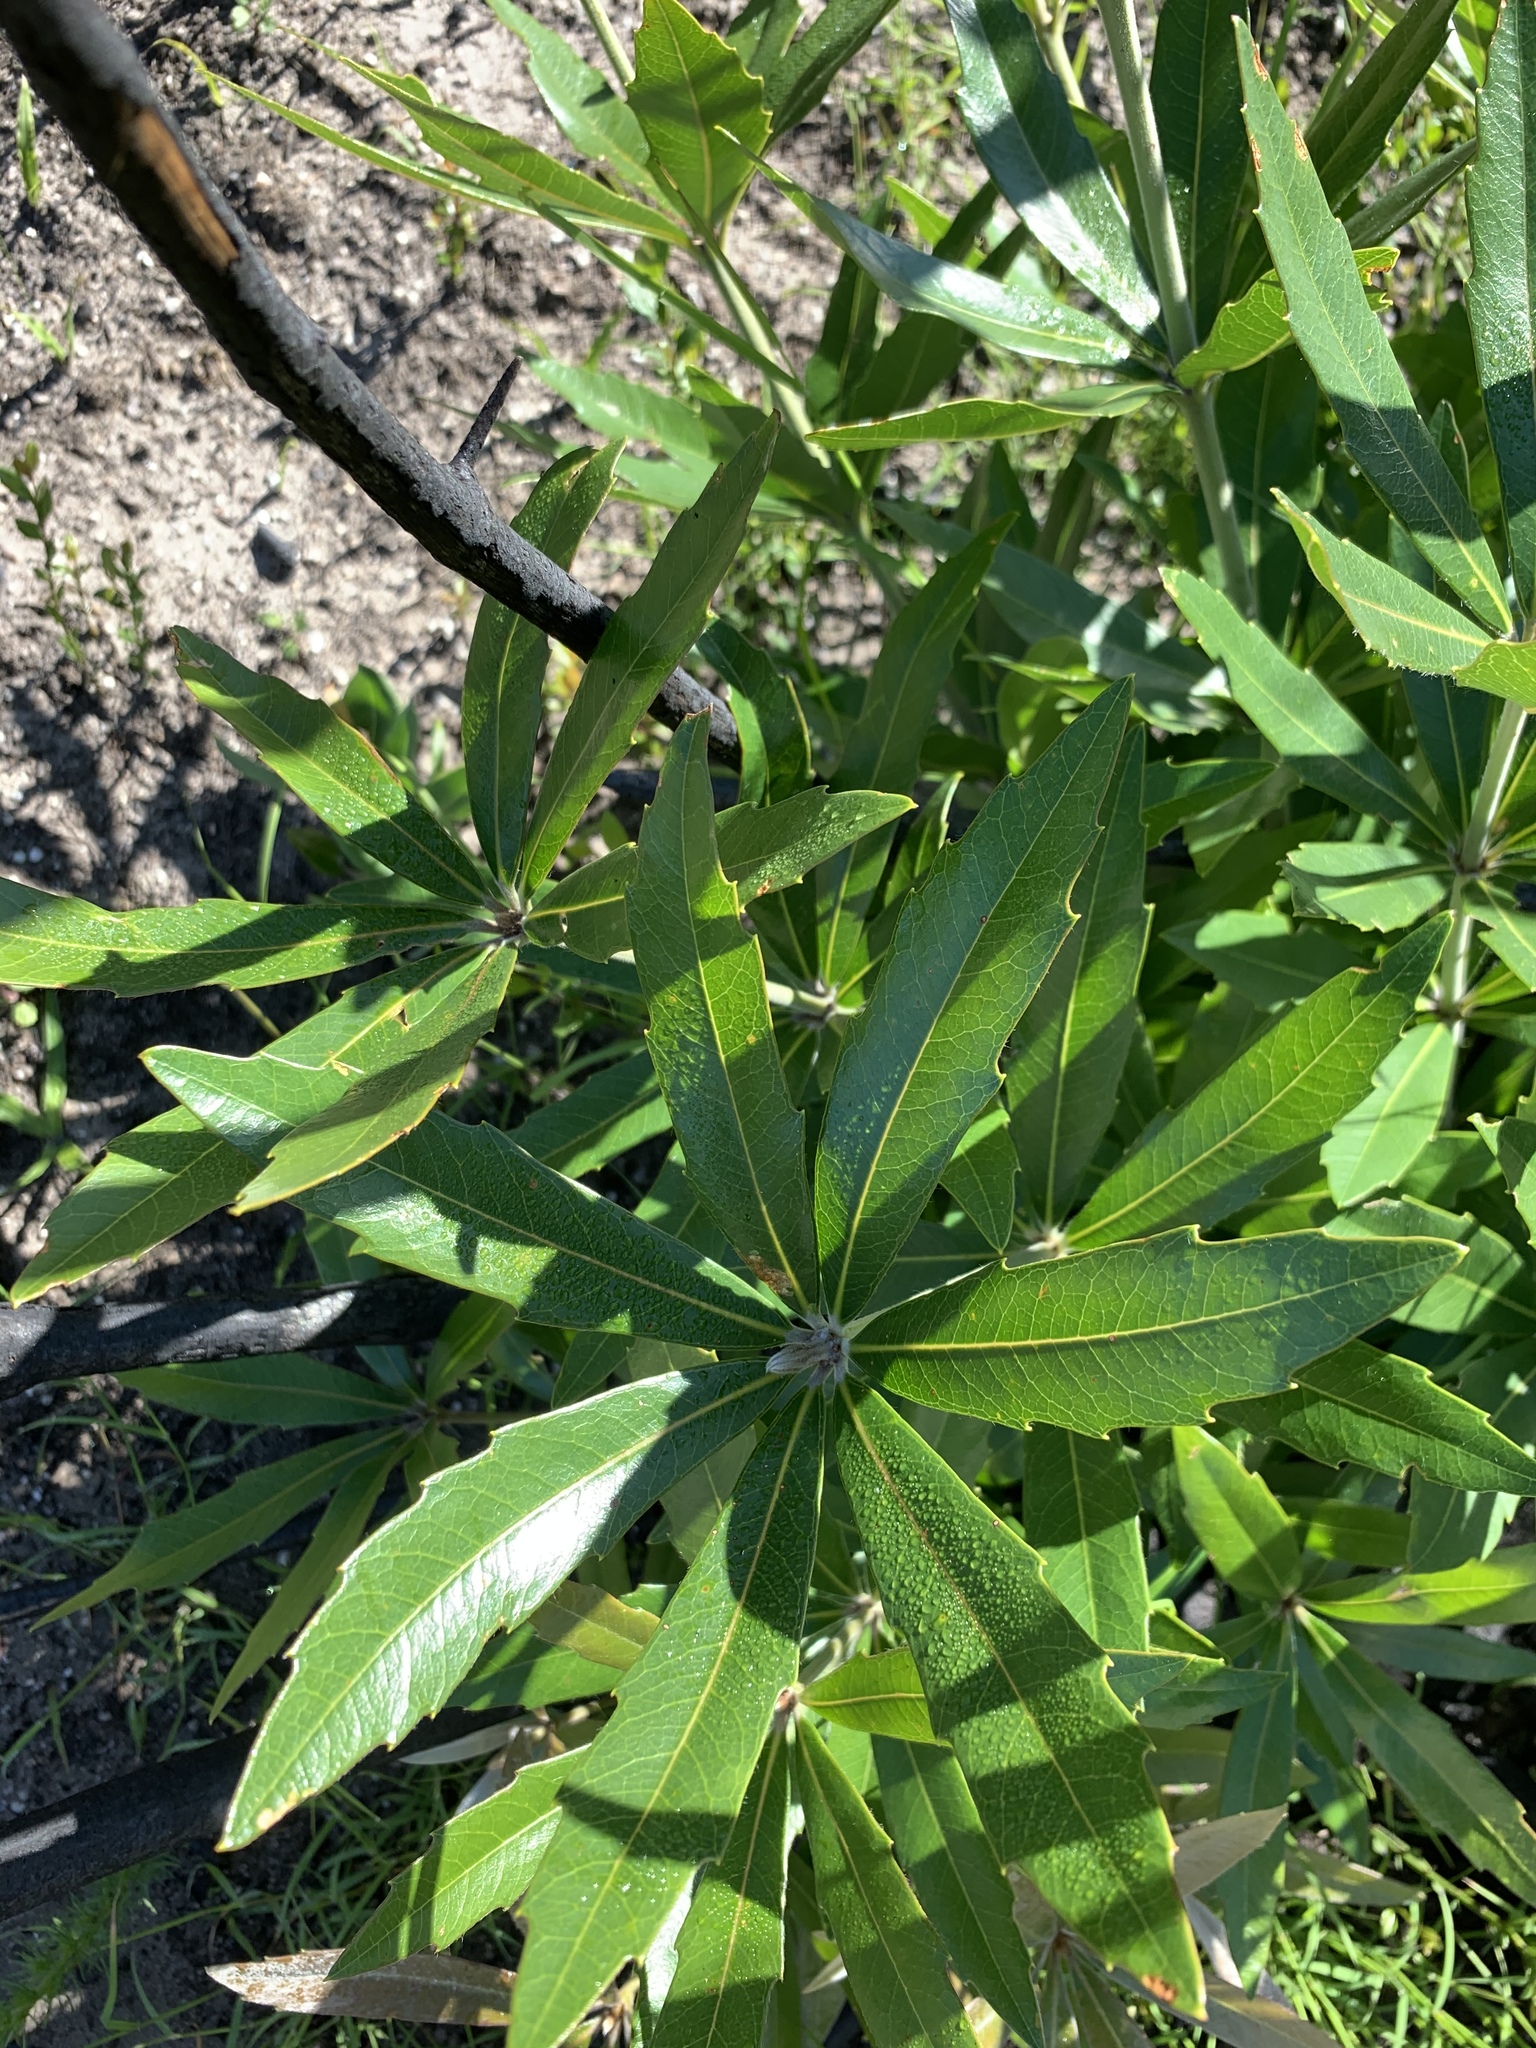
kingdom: Plantae
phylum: Tracheophyta
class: Magnoliopsida
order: Proteales
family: Proteaceae
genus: Brabejum
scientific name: Brabejum stellatifolium
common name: Wild almond
